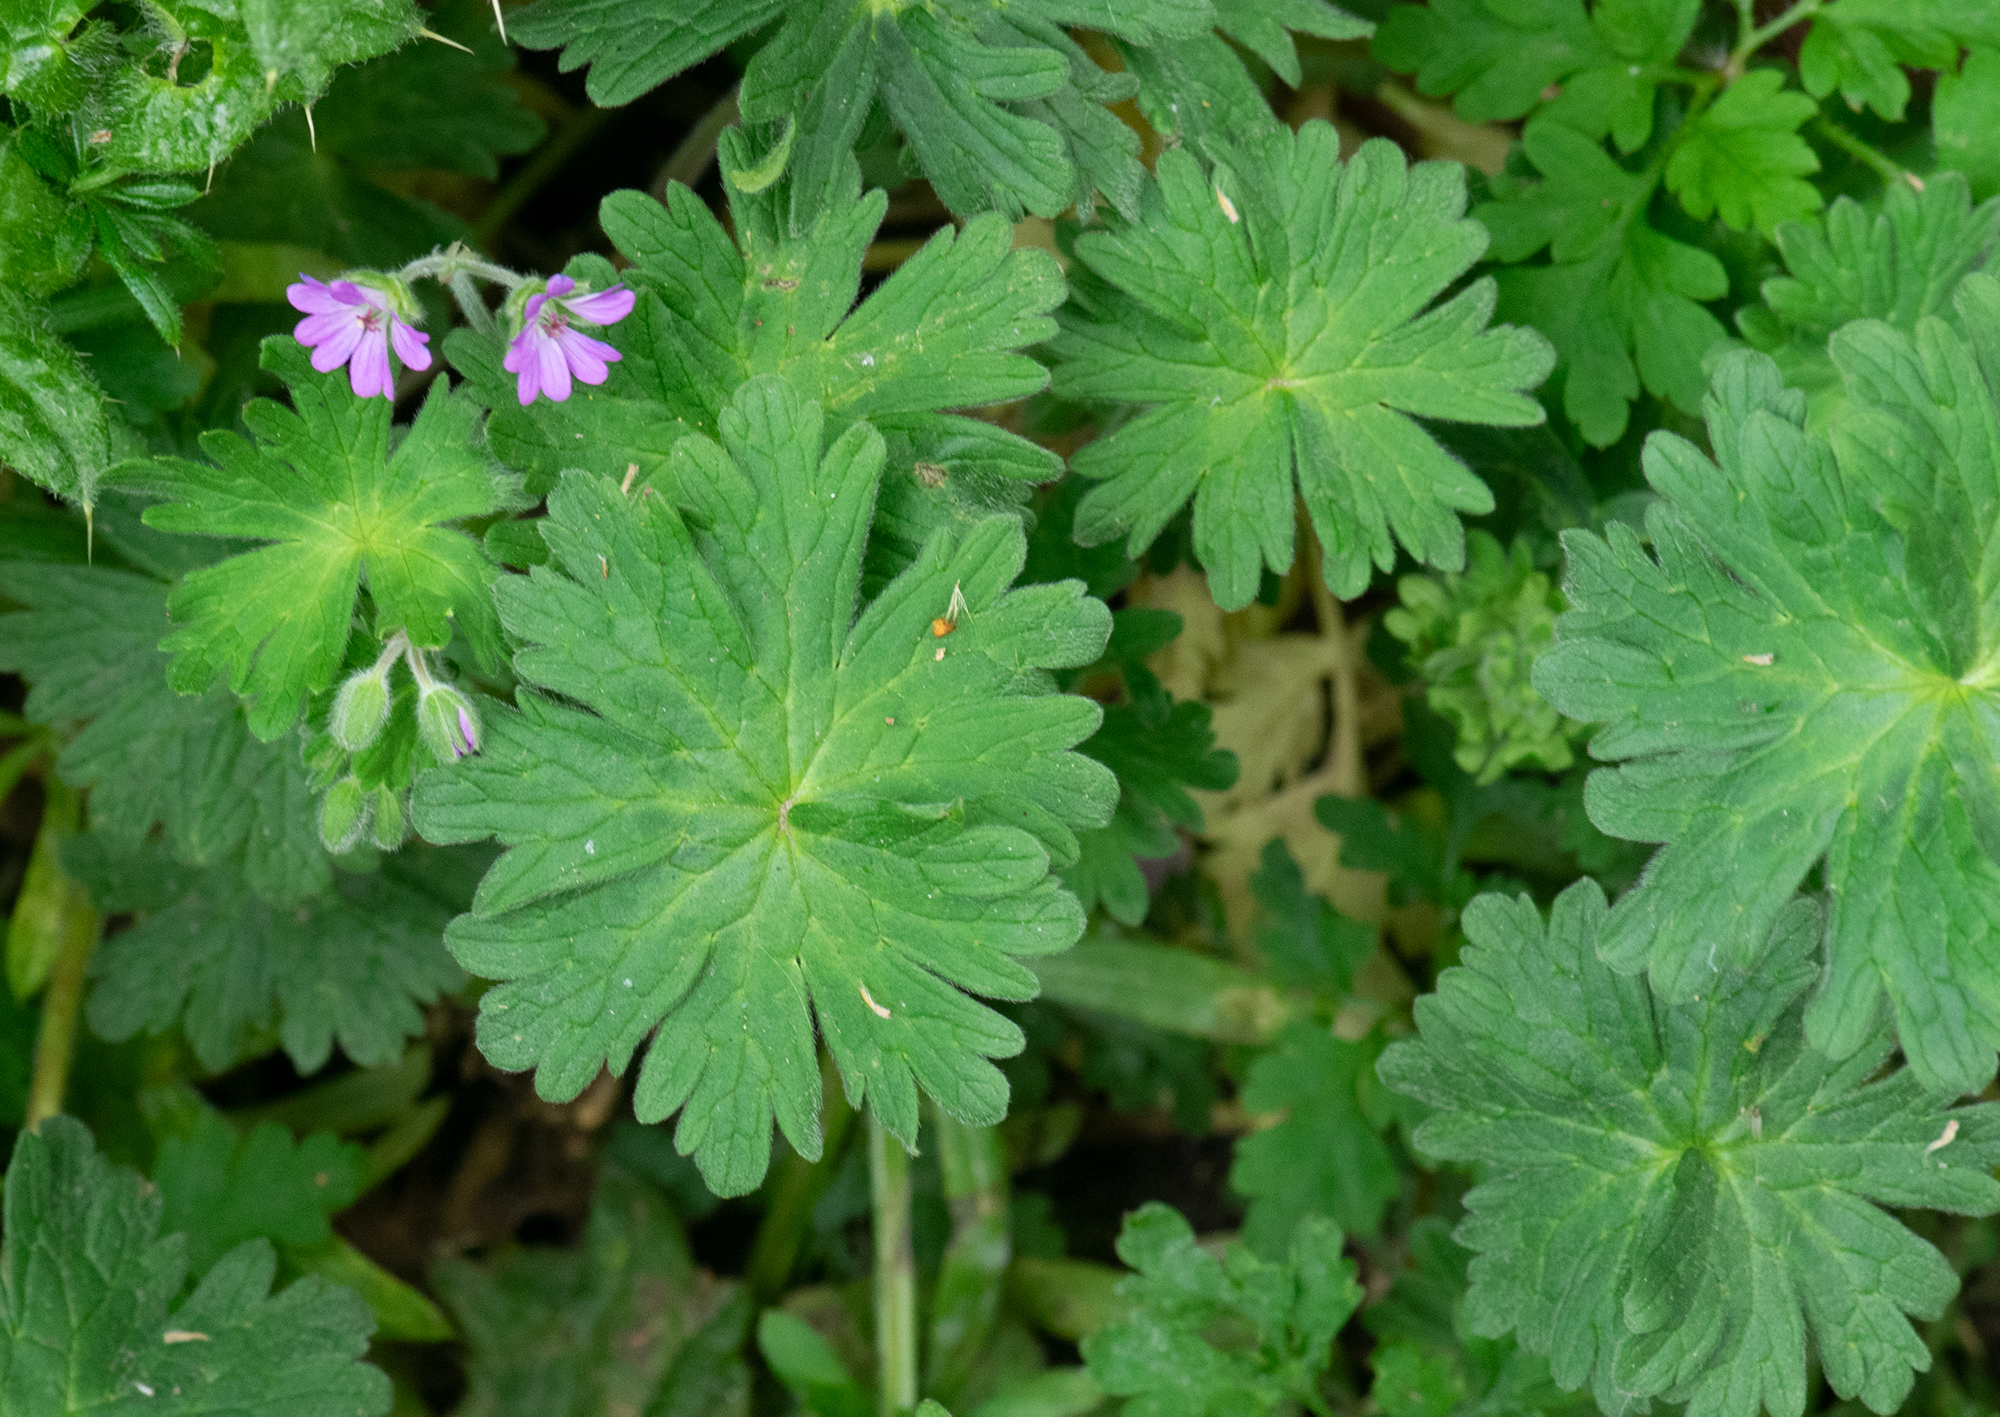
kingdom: Plantae
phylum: Tracheophyta
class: Magnoliopsida
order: Geraniales
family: Geraniaceae
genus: Geranium
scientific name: Geranium molle
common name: Dove's-foot crane's-bill
